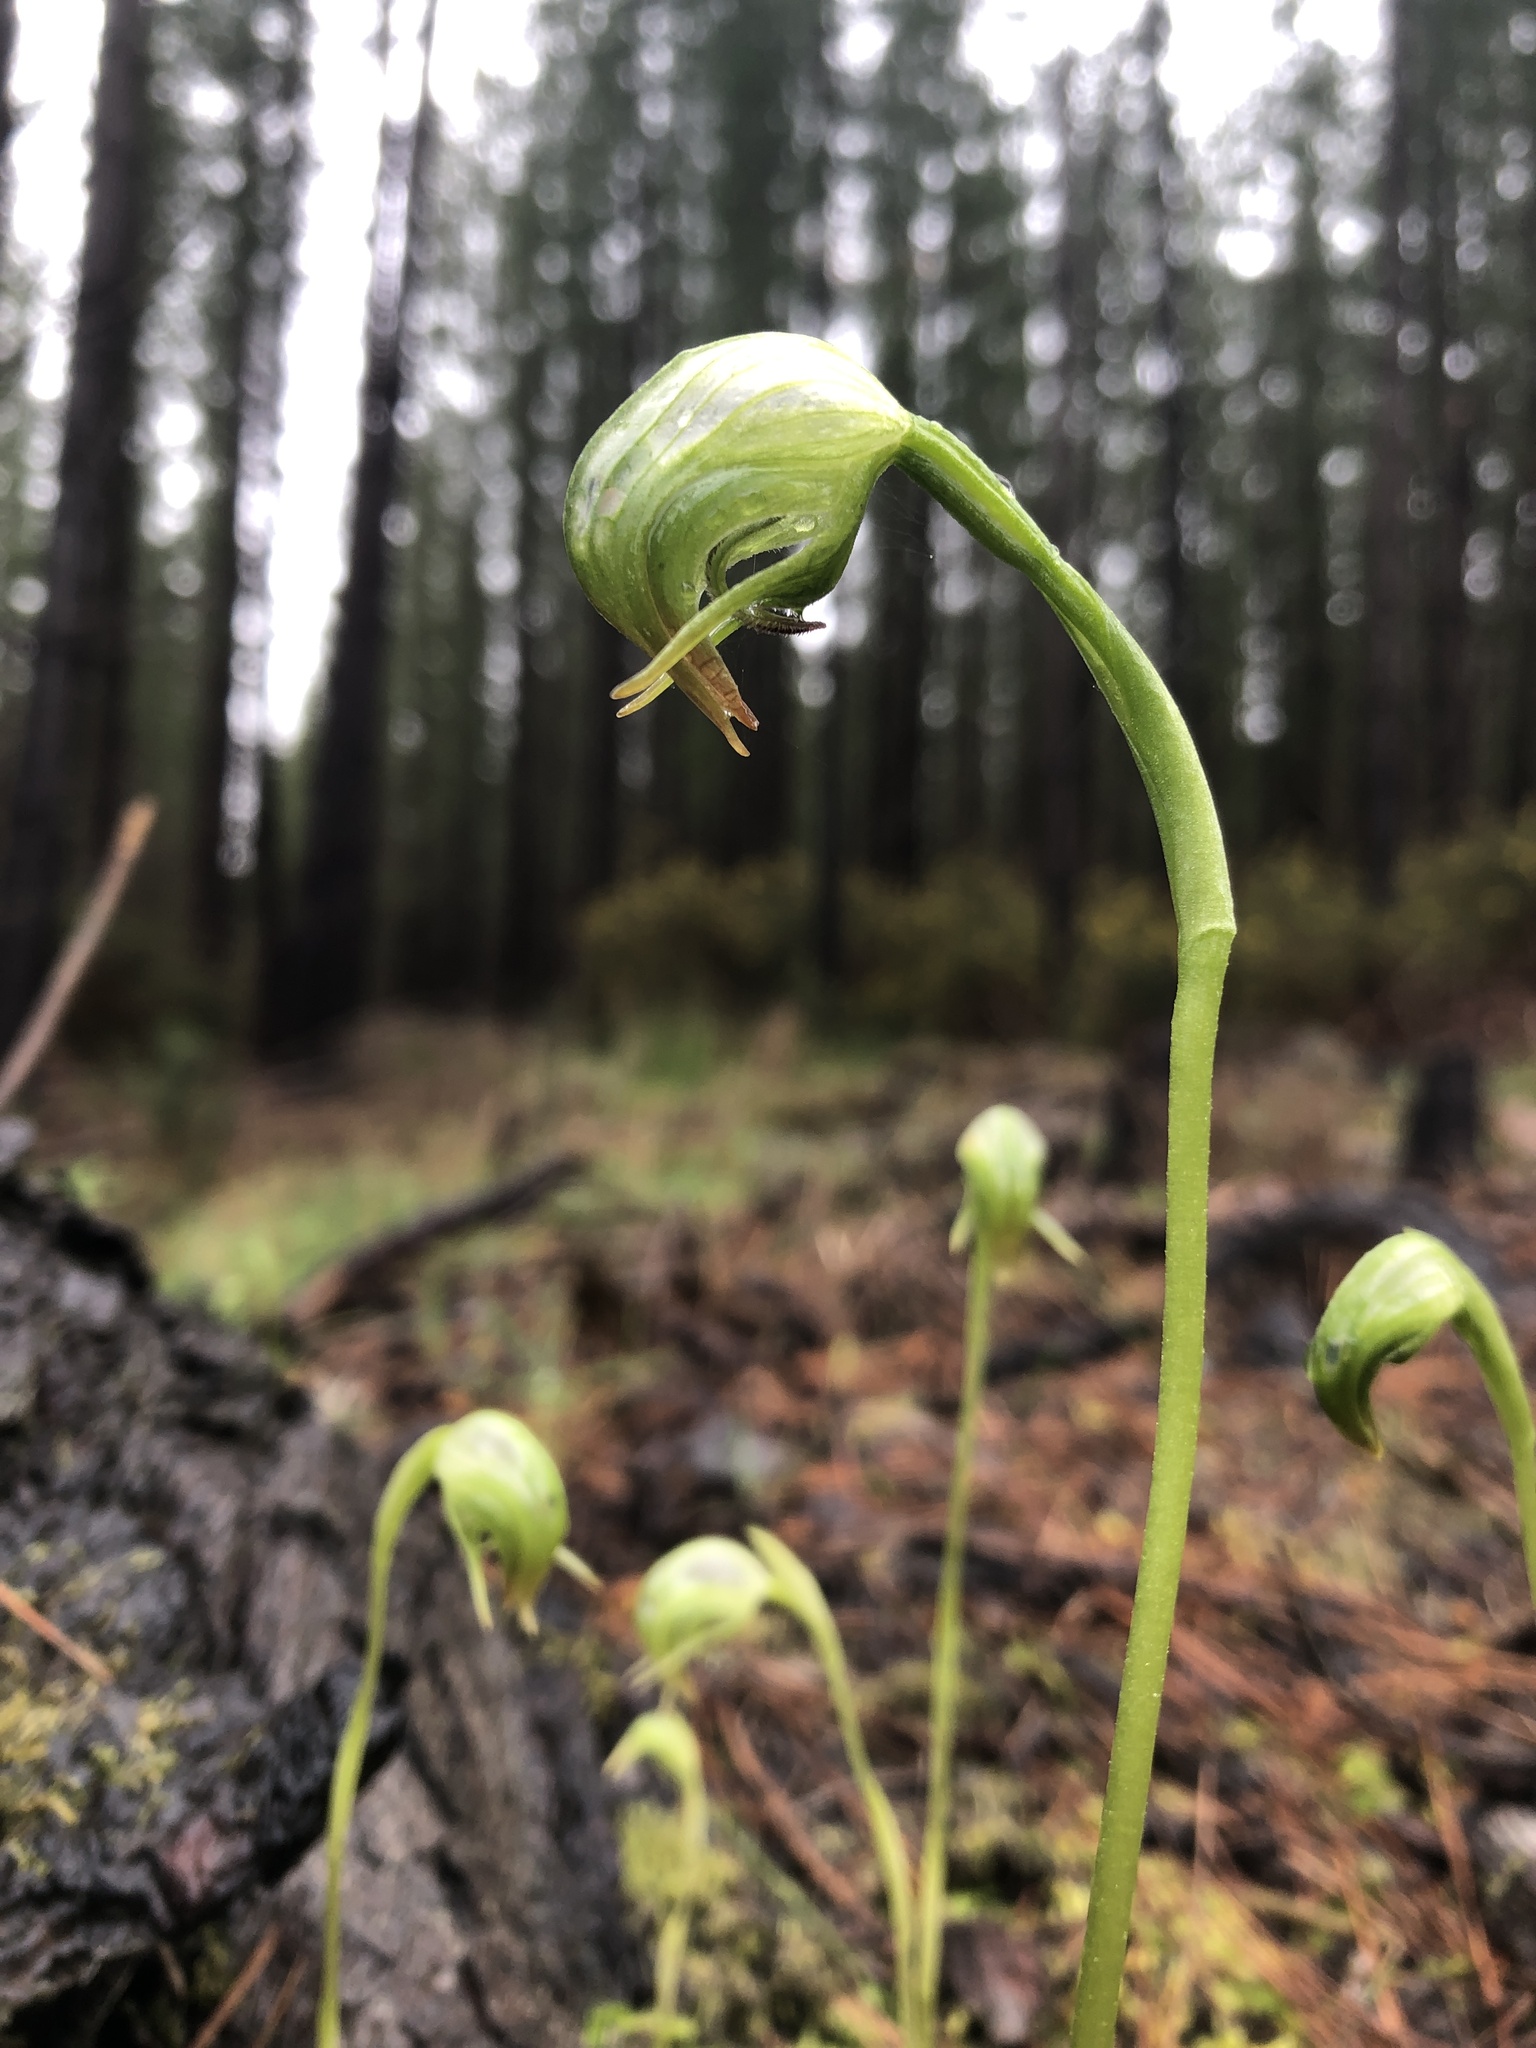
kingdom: Plantae
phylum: Tracheophyta
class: Liliopsida
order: Asparagales
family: Orchidaceae
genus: Pterostylis
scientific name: Pterostylis nutans
